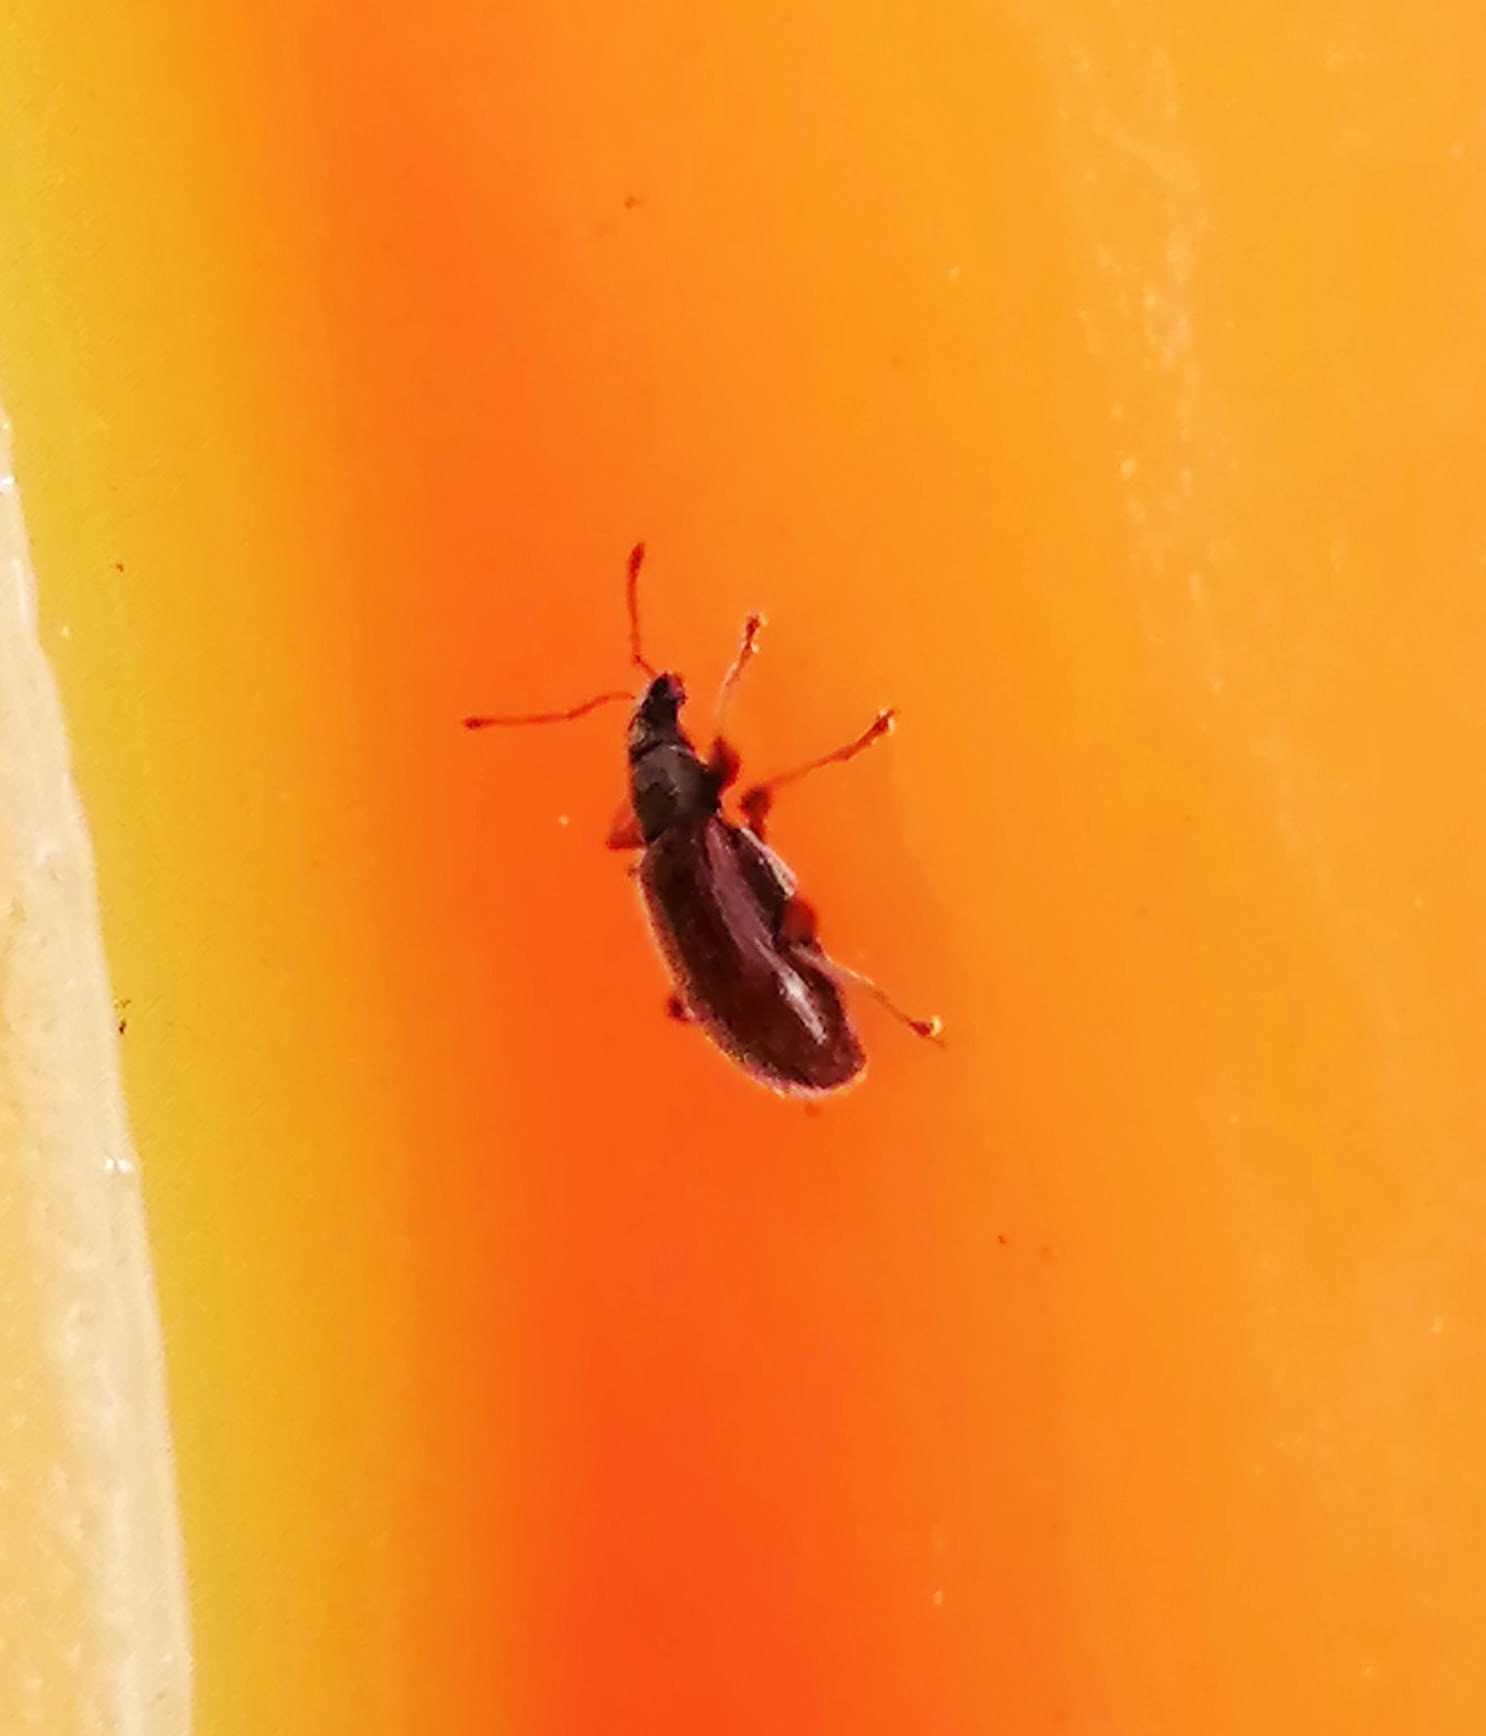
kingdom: Animalia
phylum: Arthropoda
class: Insecta
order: Coleoptera
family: Curculionidae
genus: Phyllobius
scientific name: Phyllobius oblongus
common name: Brown leaf weevil
